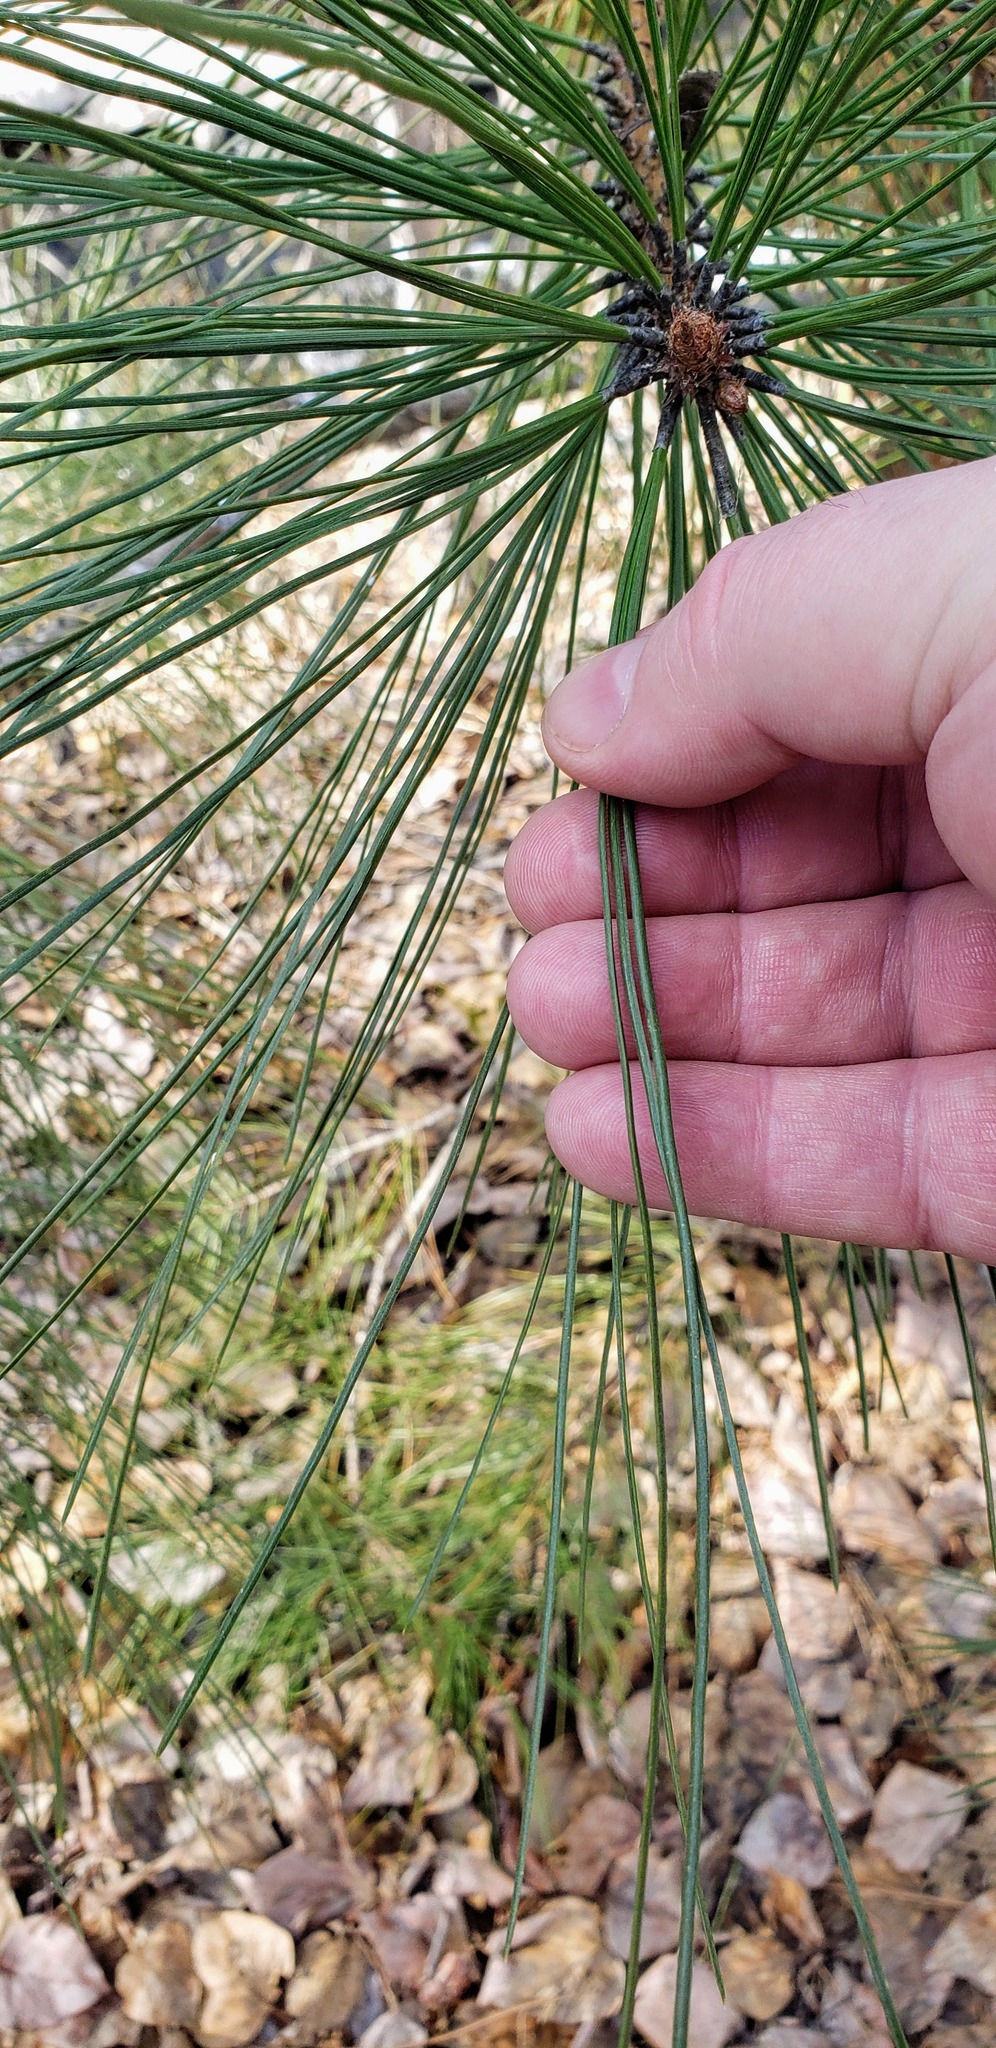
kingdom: Plantae
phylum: Tracheophyta
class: Pinopsida
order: Pinales
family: Pinaceae
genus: Pinus
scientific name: Pinus ponderosa
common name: Western yellow-pine
